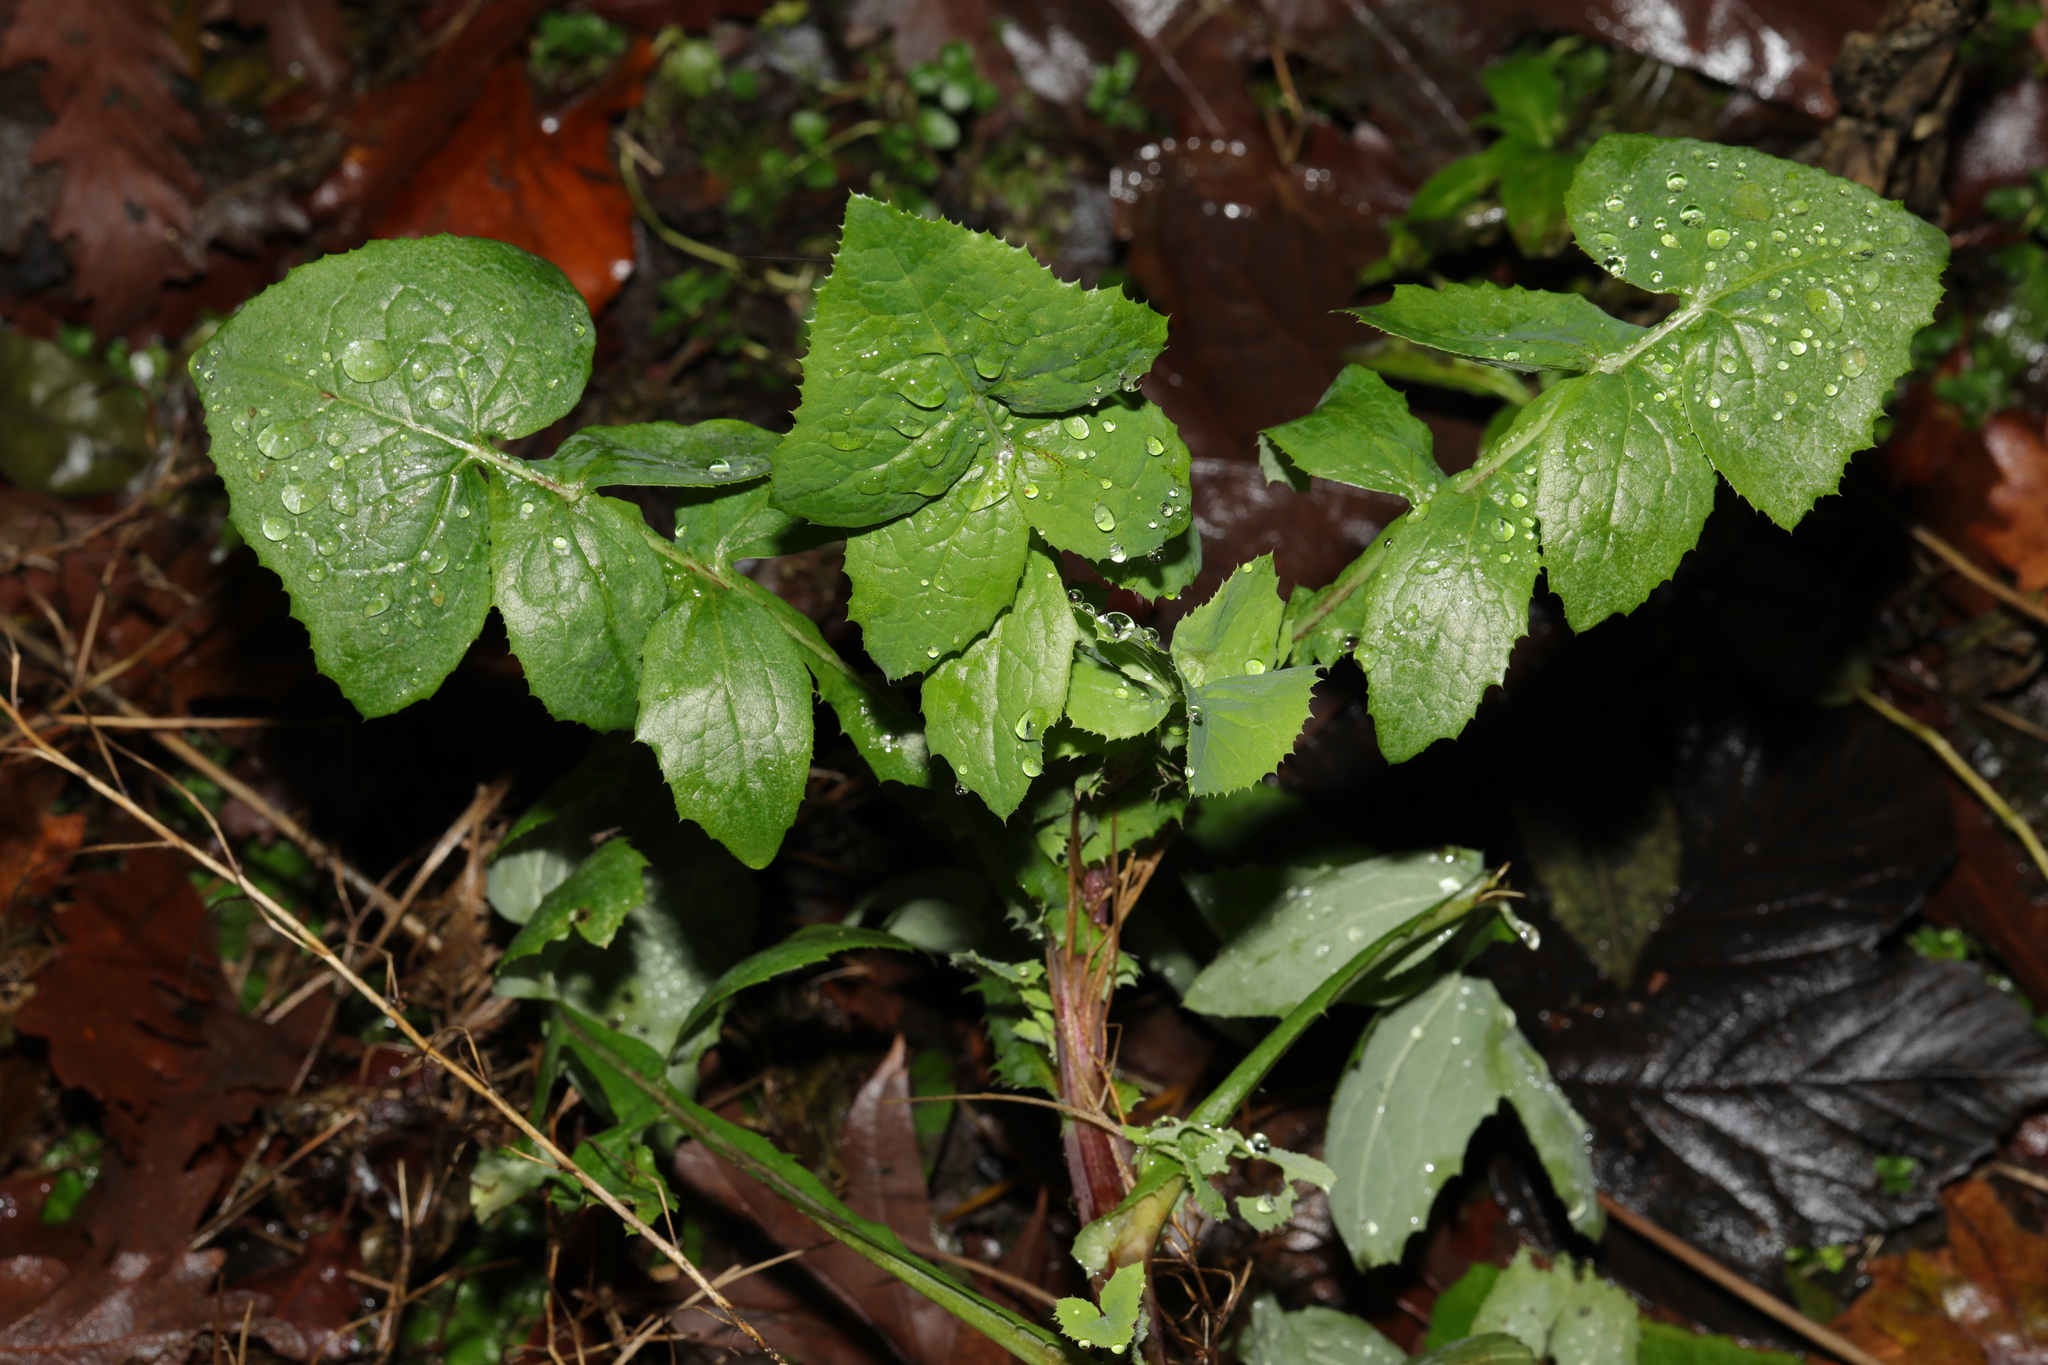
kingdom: Plantae
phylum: Tracheophyta
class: Magnoliopsida
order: Asterales
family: Asteraceae
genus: Sonchus
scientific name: Sonchus oleraceus
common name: Common sowthistle
